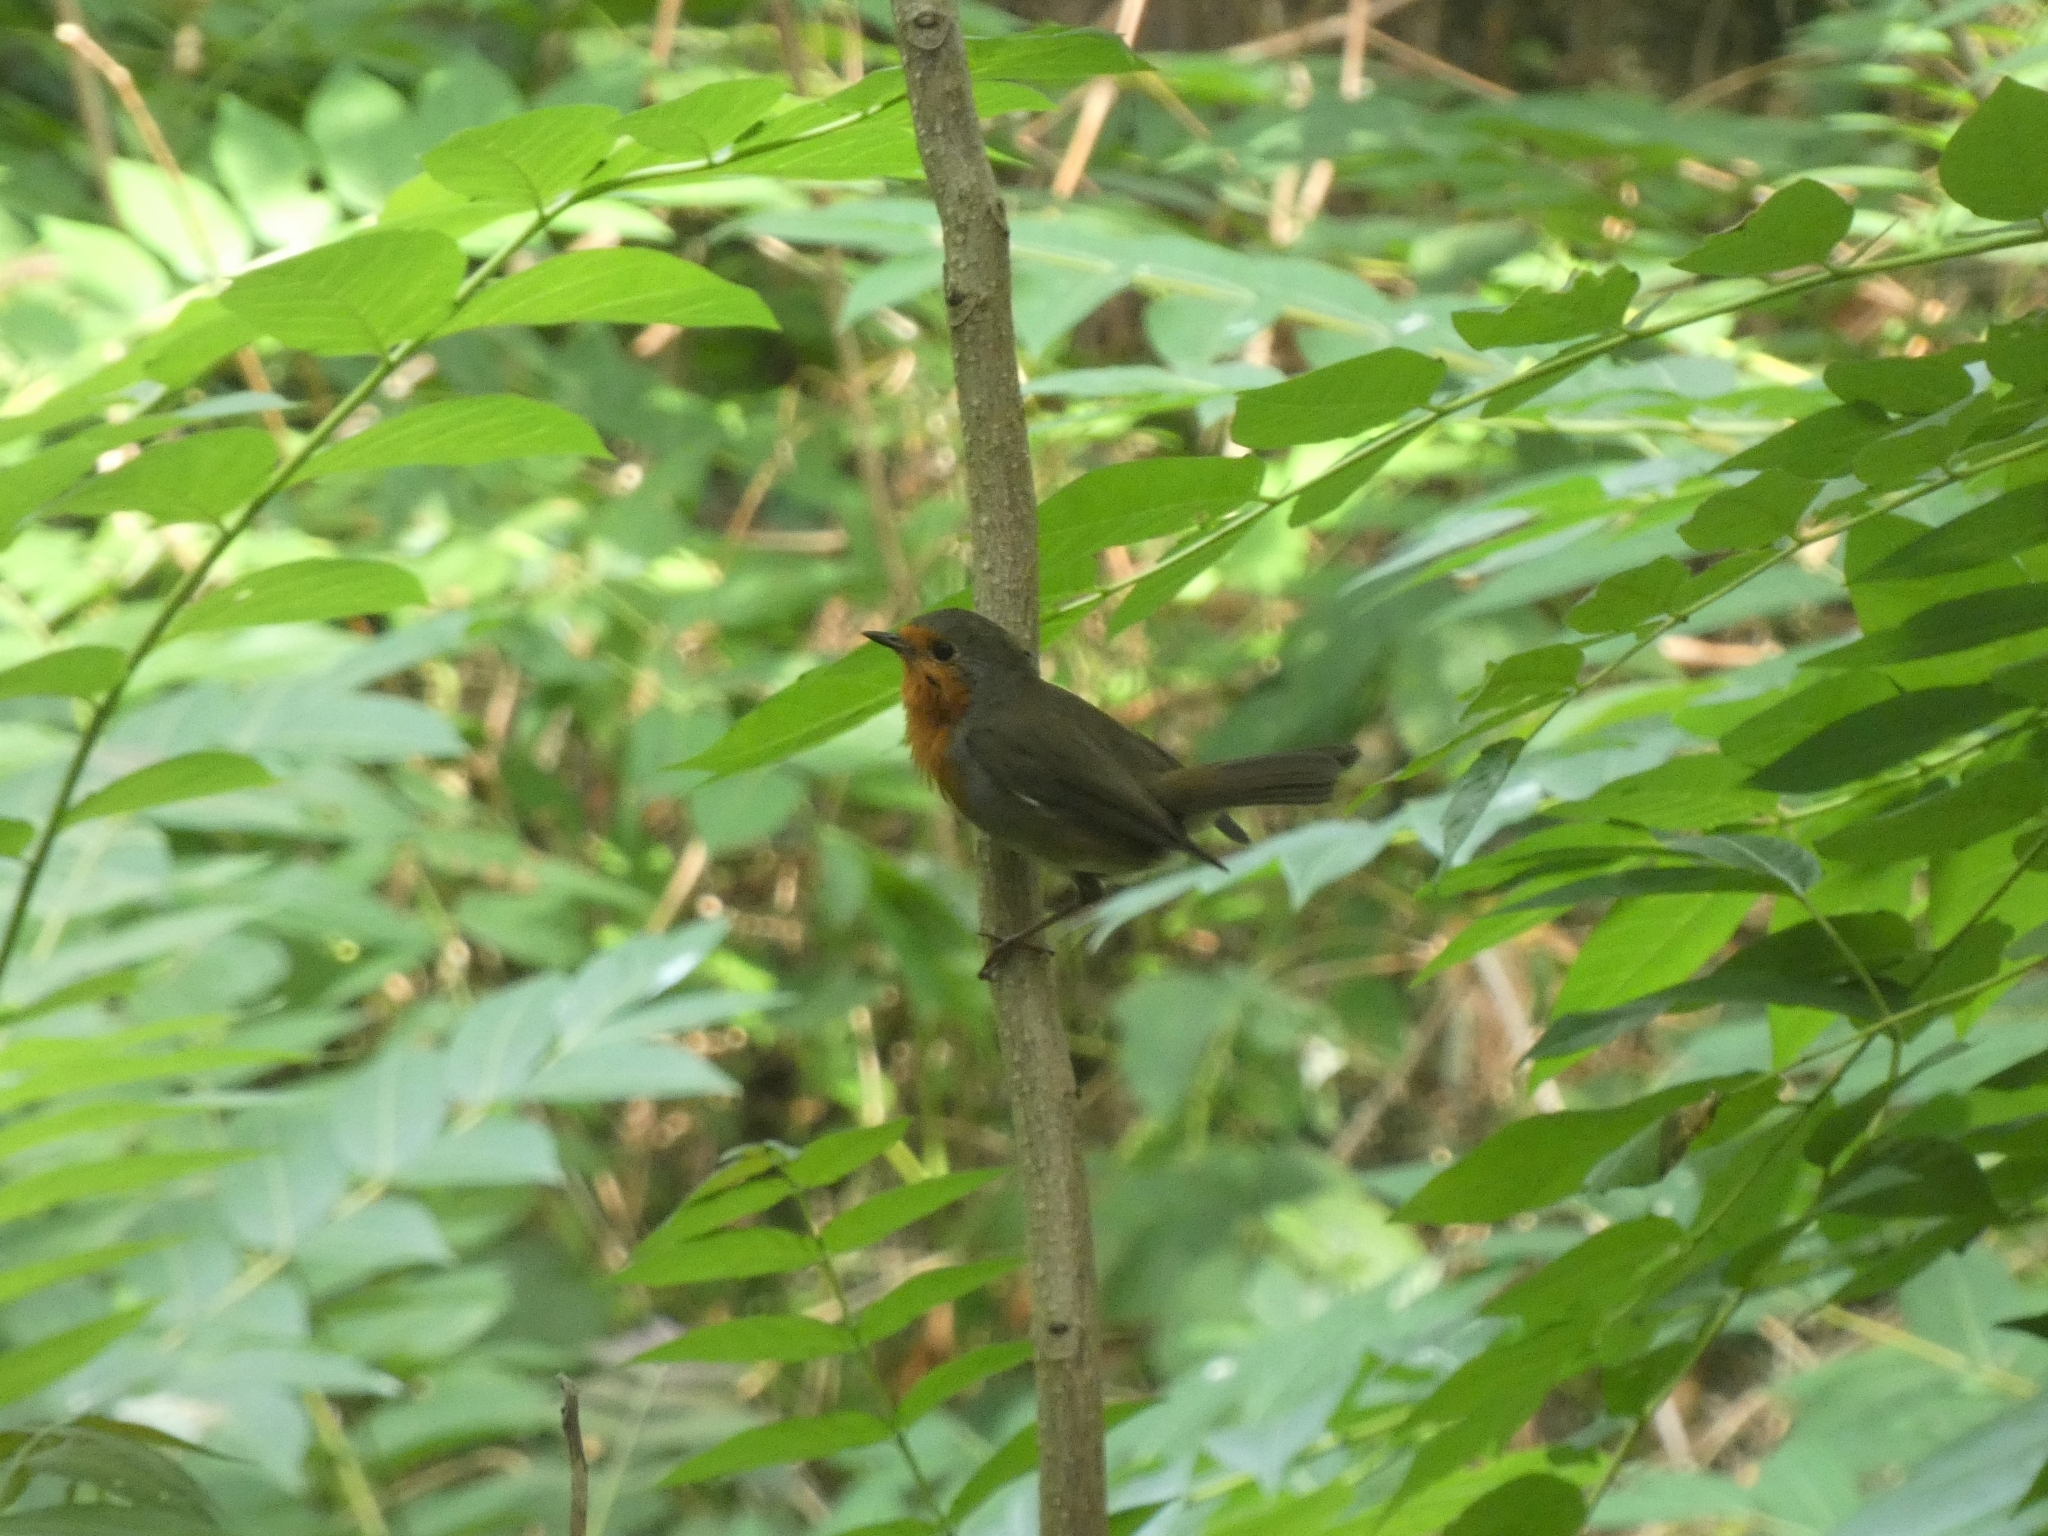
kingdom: Animalia
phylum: Chordata
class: Aves
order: Passeriformes
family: Muscicapidae
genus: Erithacus
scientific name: Erithacus rubecula
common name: European robin
